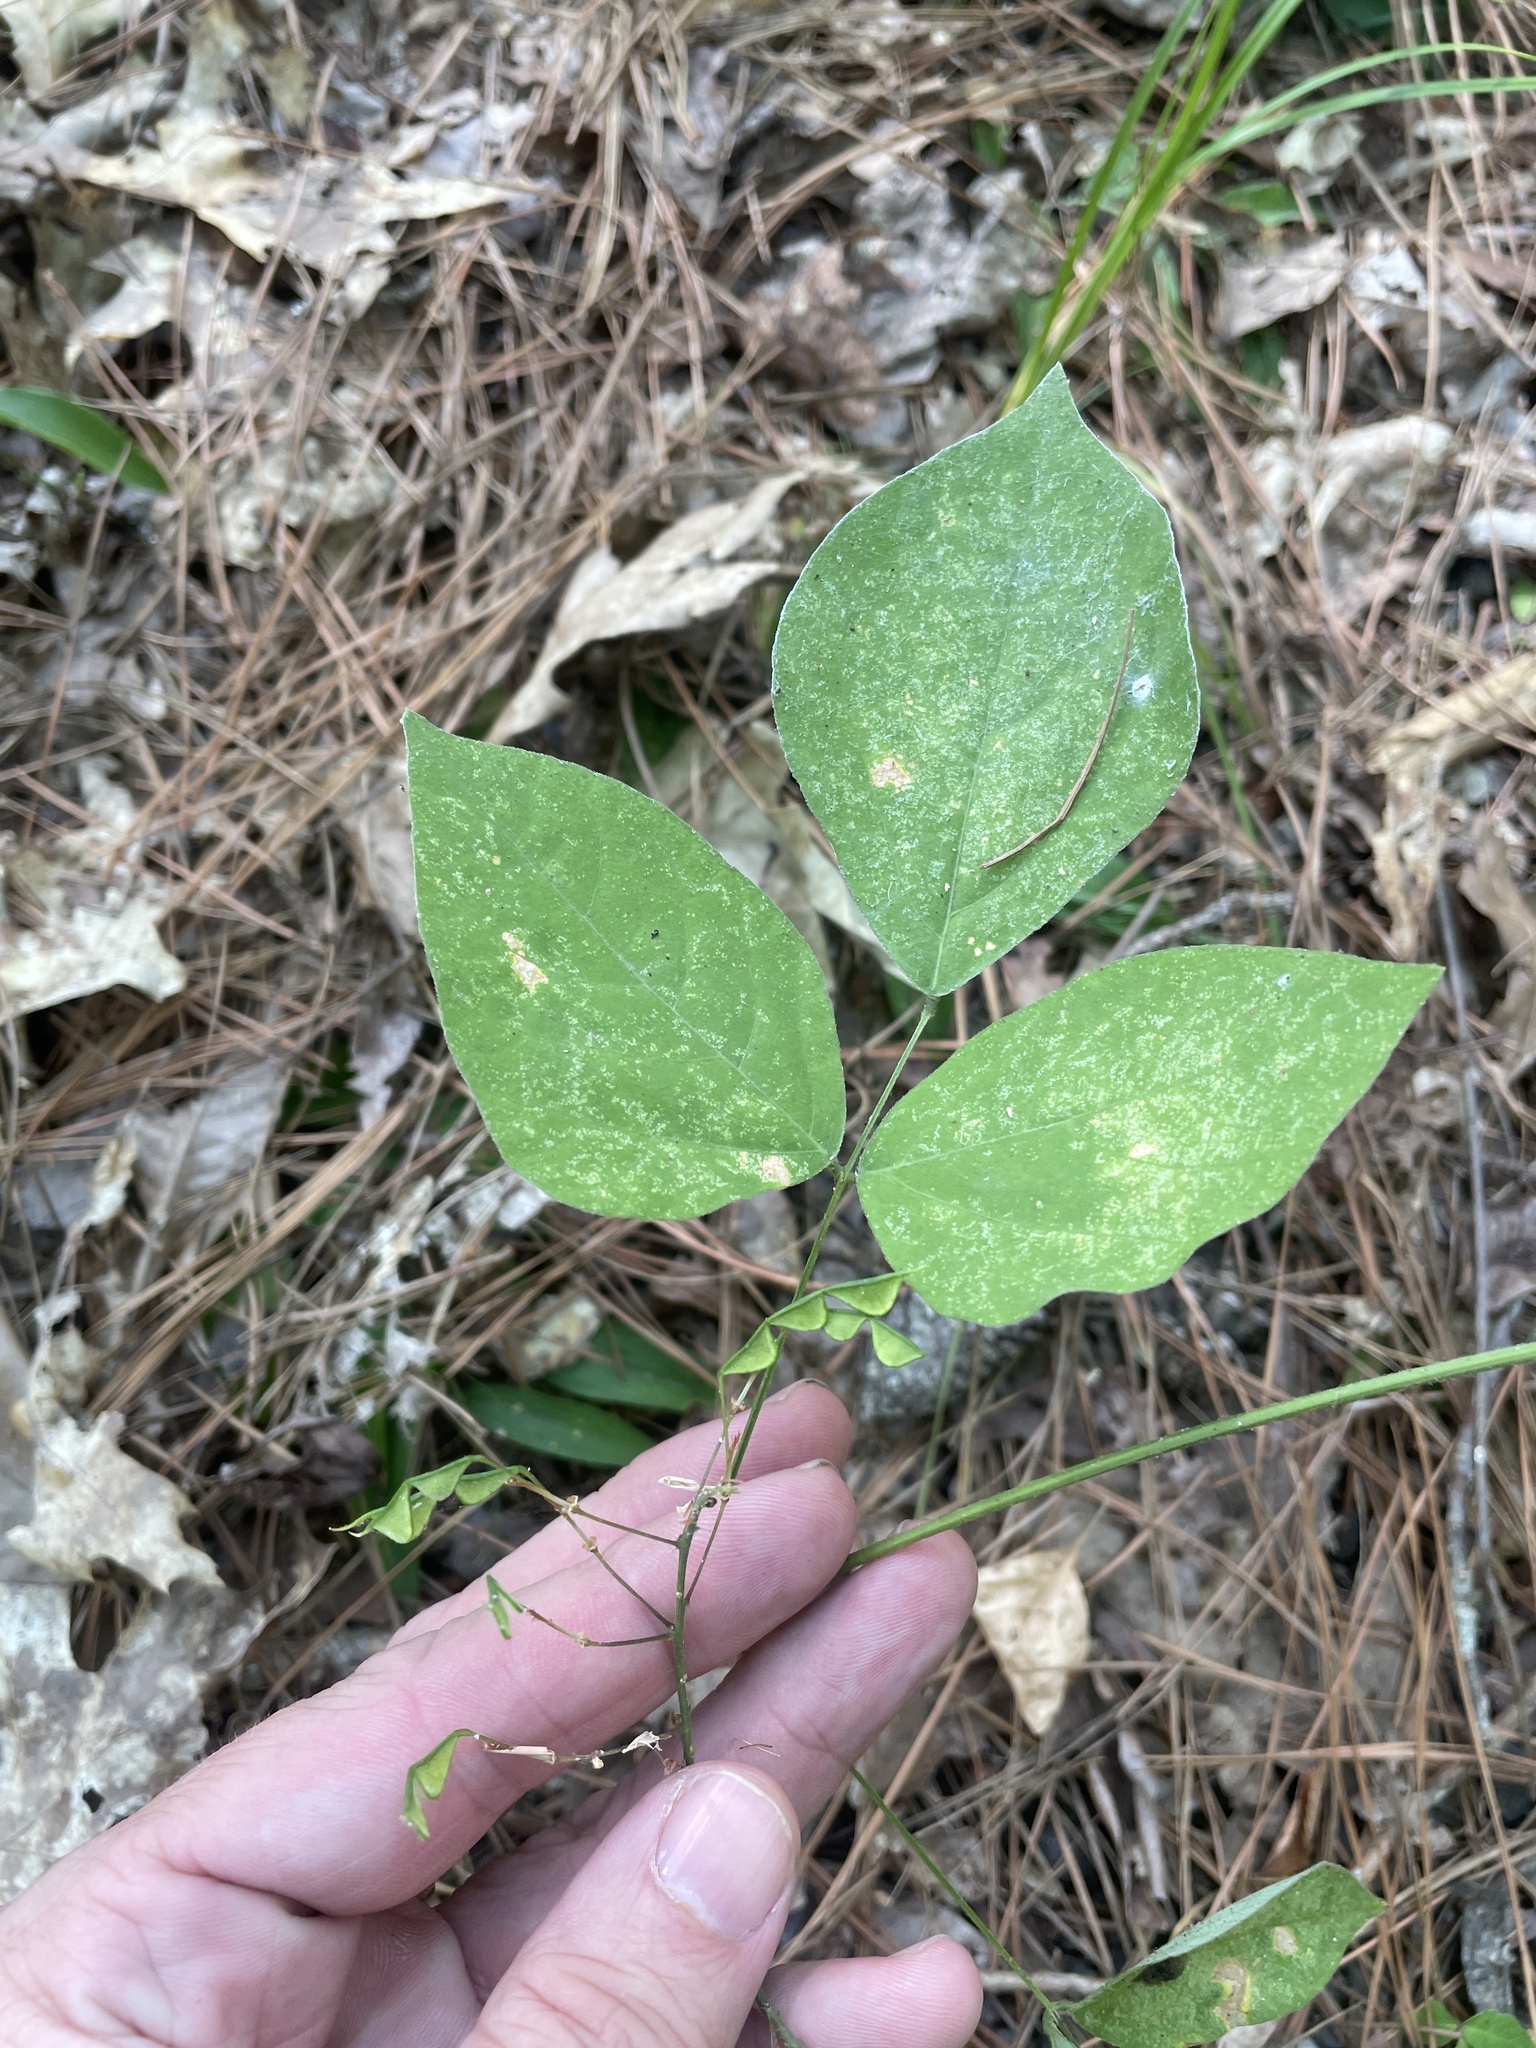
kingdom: Plantae
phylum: Tracheophyta
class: Magnoliopsida
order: Fabales
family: Fabaceae
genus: Hylodesmum
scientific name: Hylodesmum nudiflorum
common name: Bare-stemmed tick-trefoil
